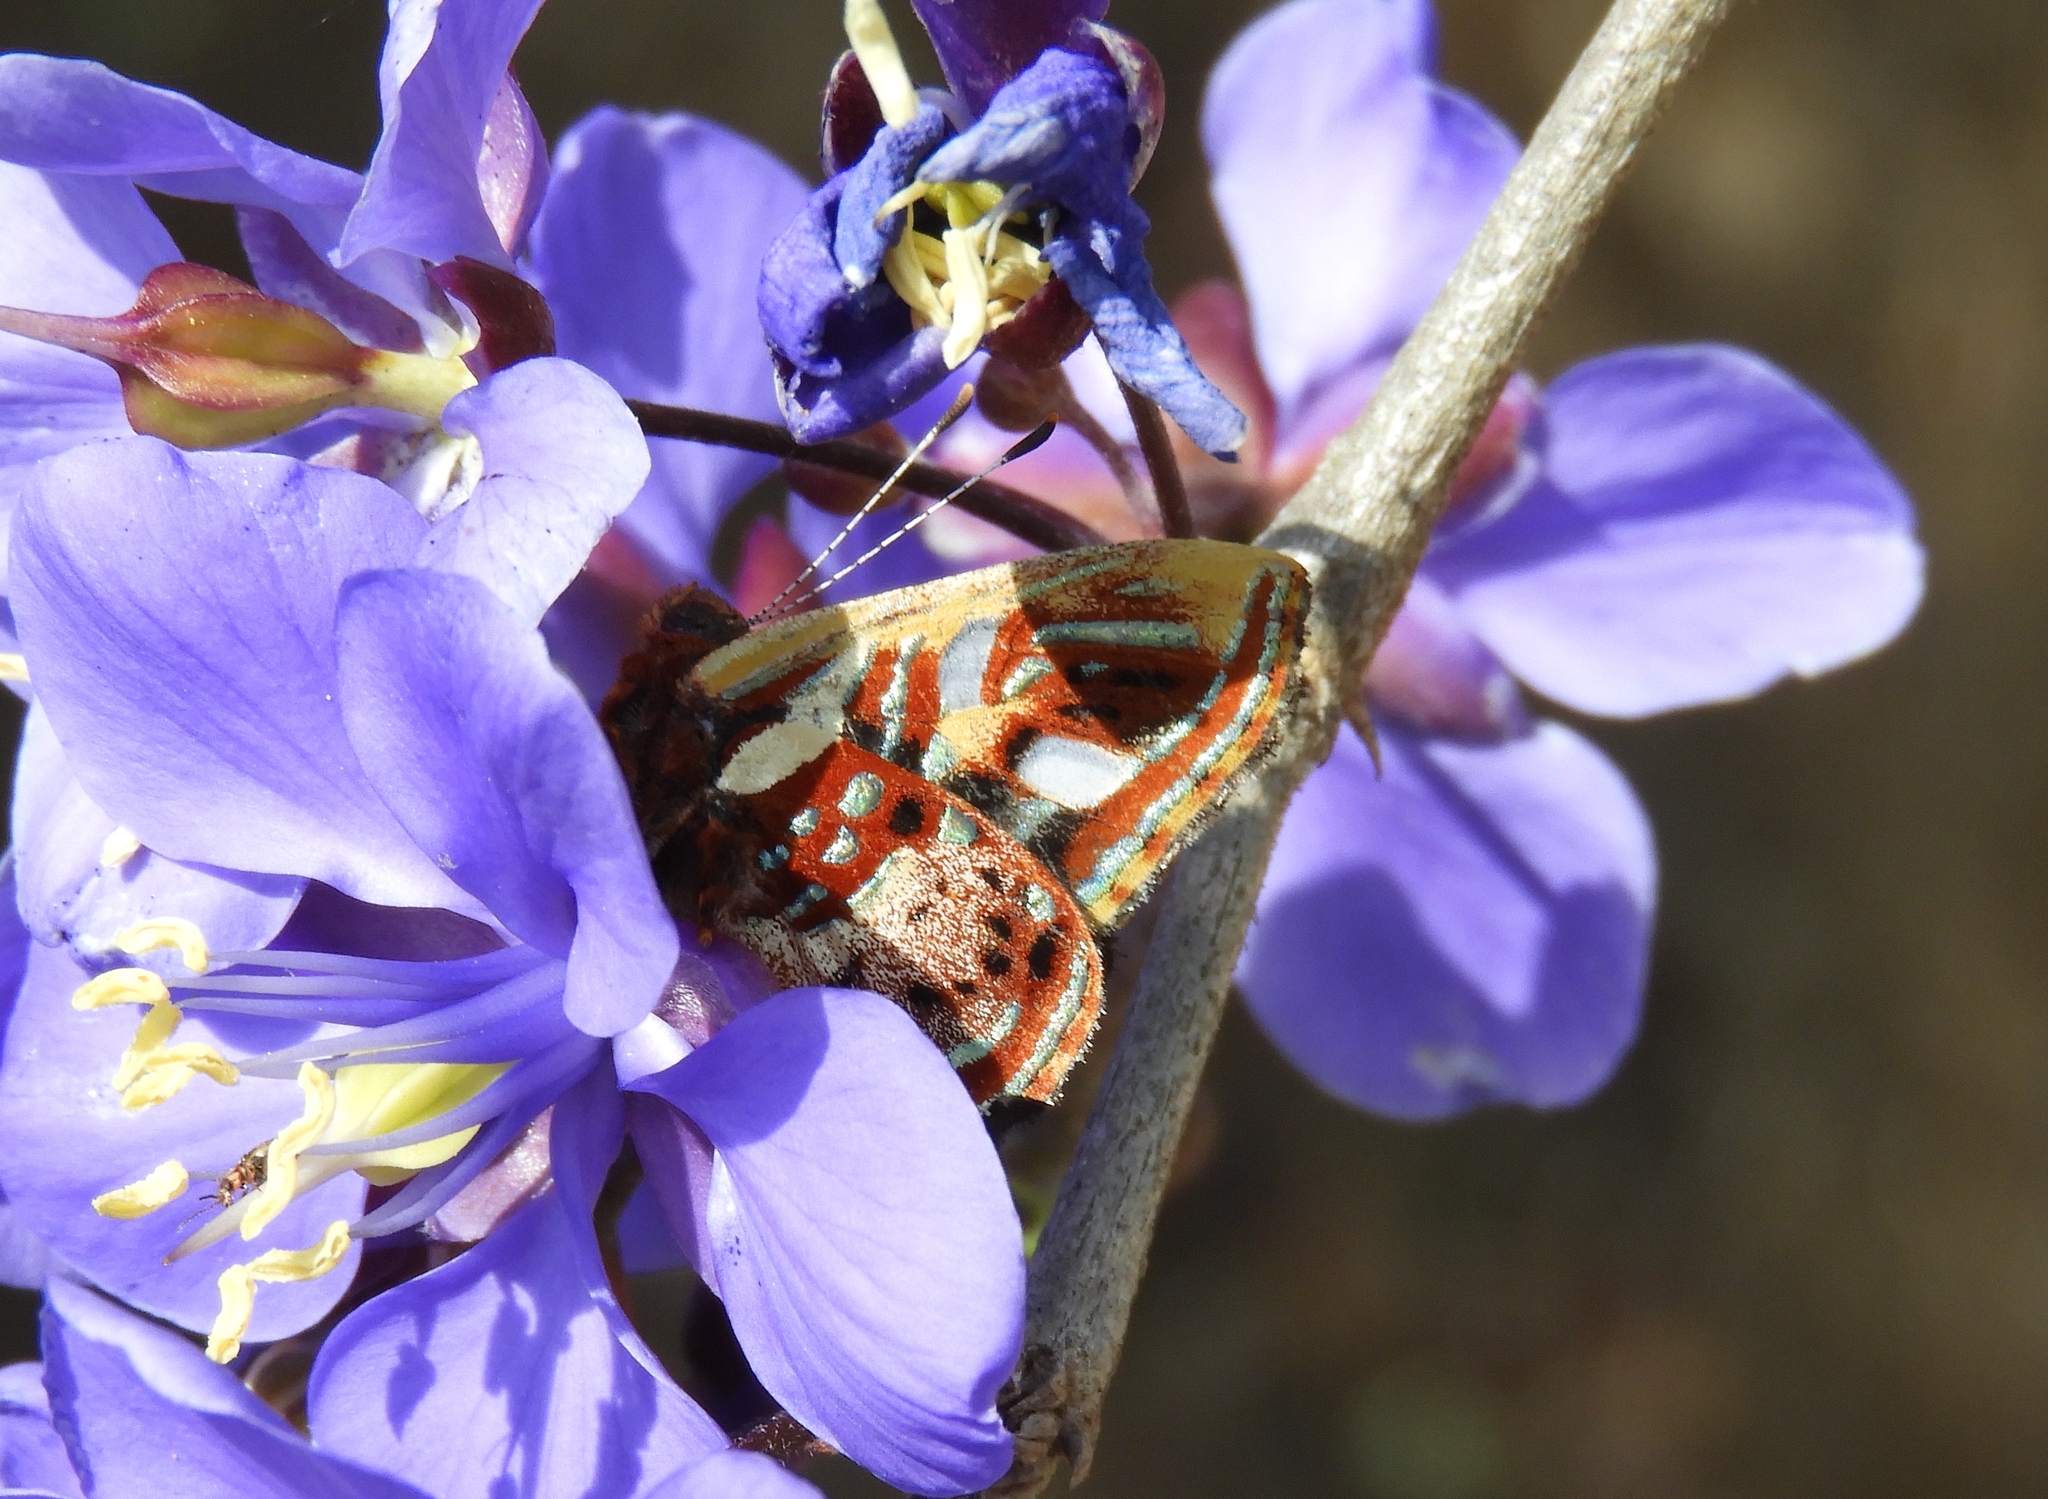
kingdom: Animalia
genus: Anteros
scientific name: Anteros carausius
